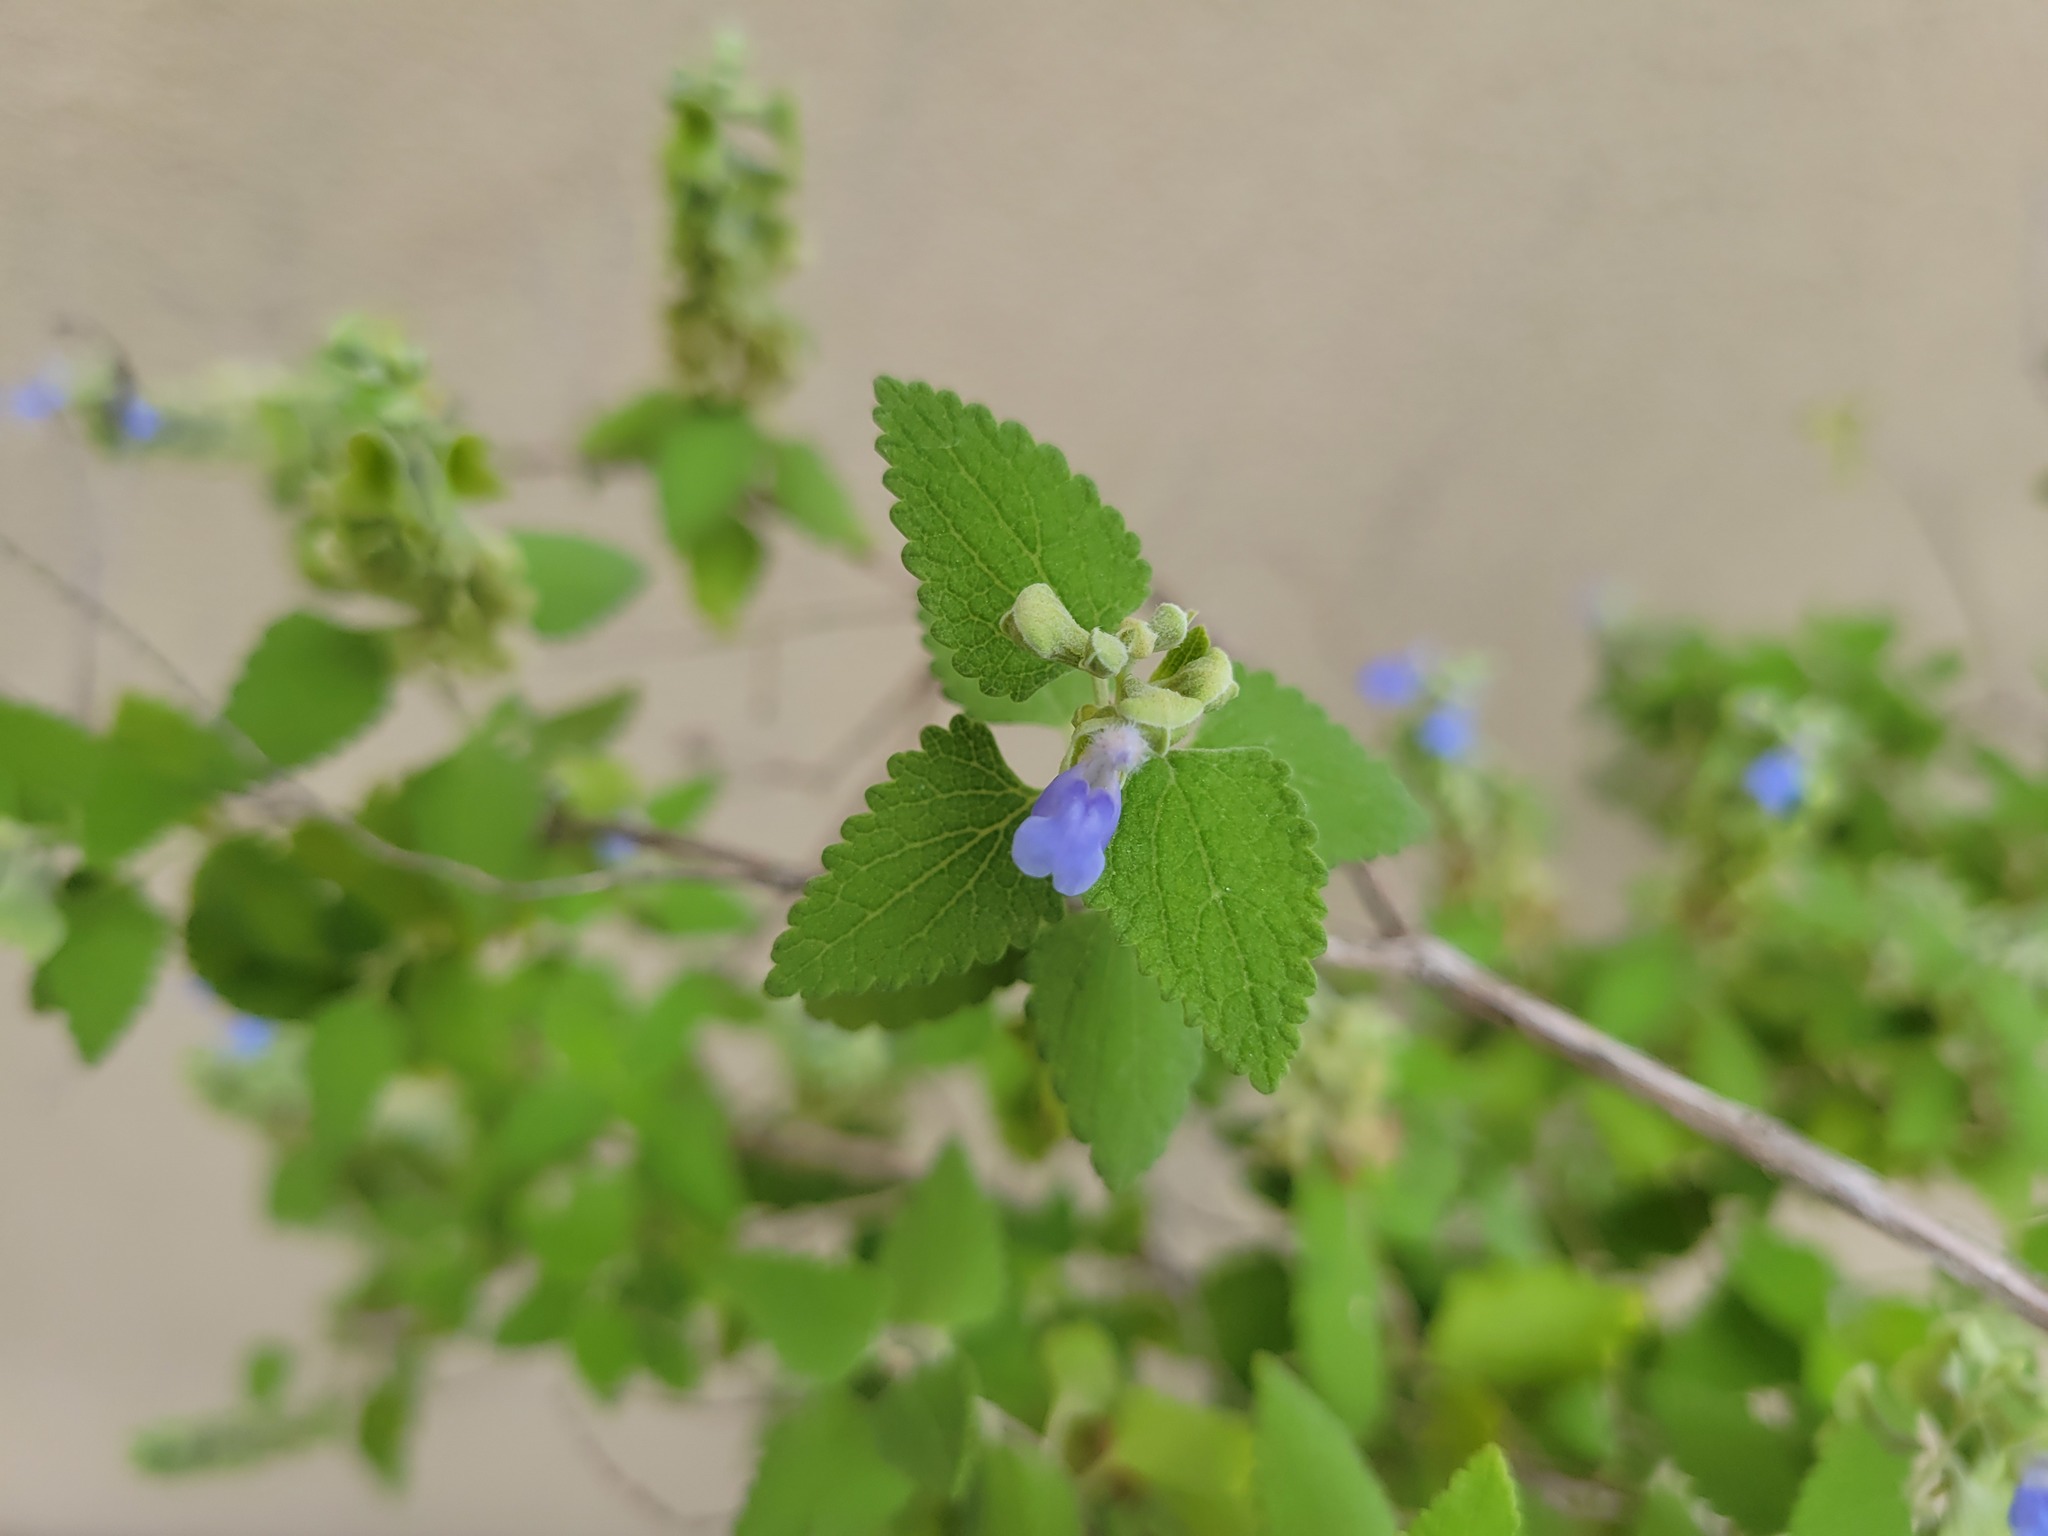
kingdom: Plantae
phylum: Tracheophyta
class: Magnoliopsida
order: Lamiales
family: Lamiaceae
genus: Salvia
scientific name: Salvia ballotiflora
